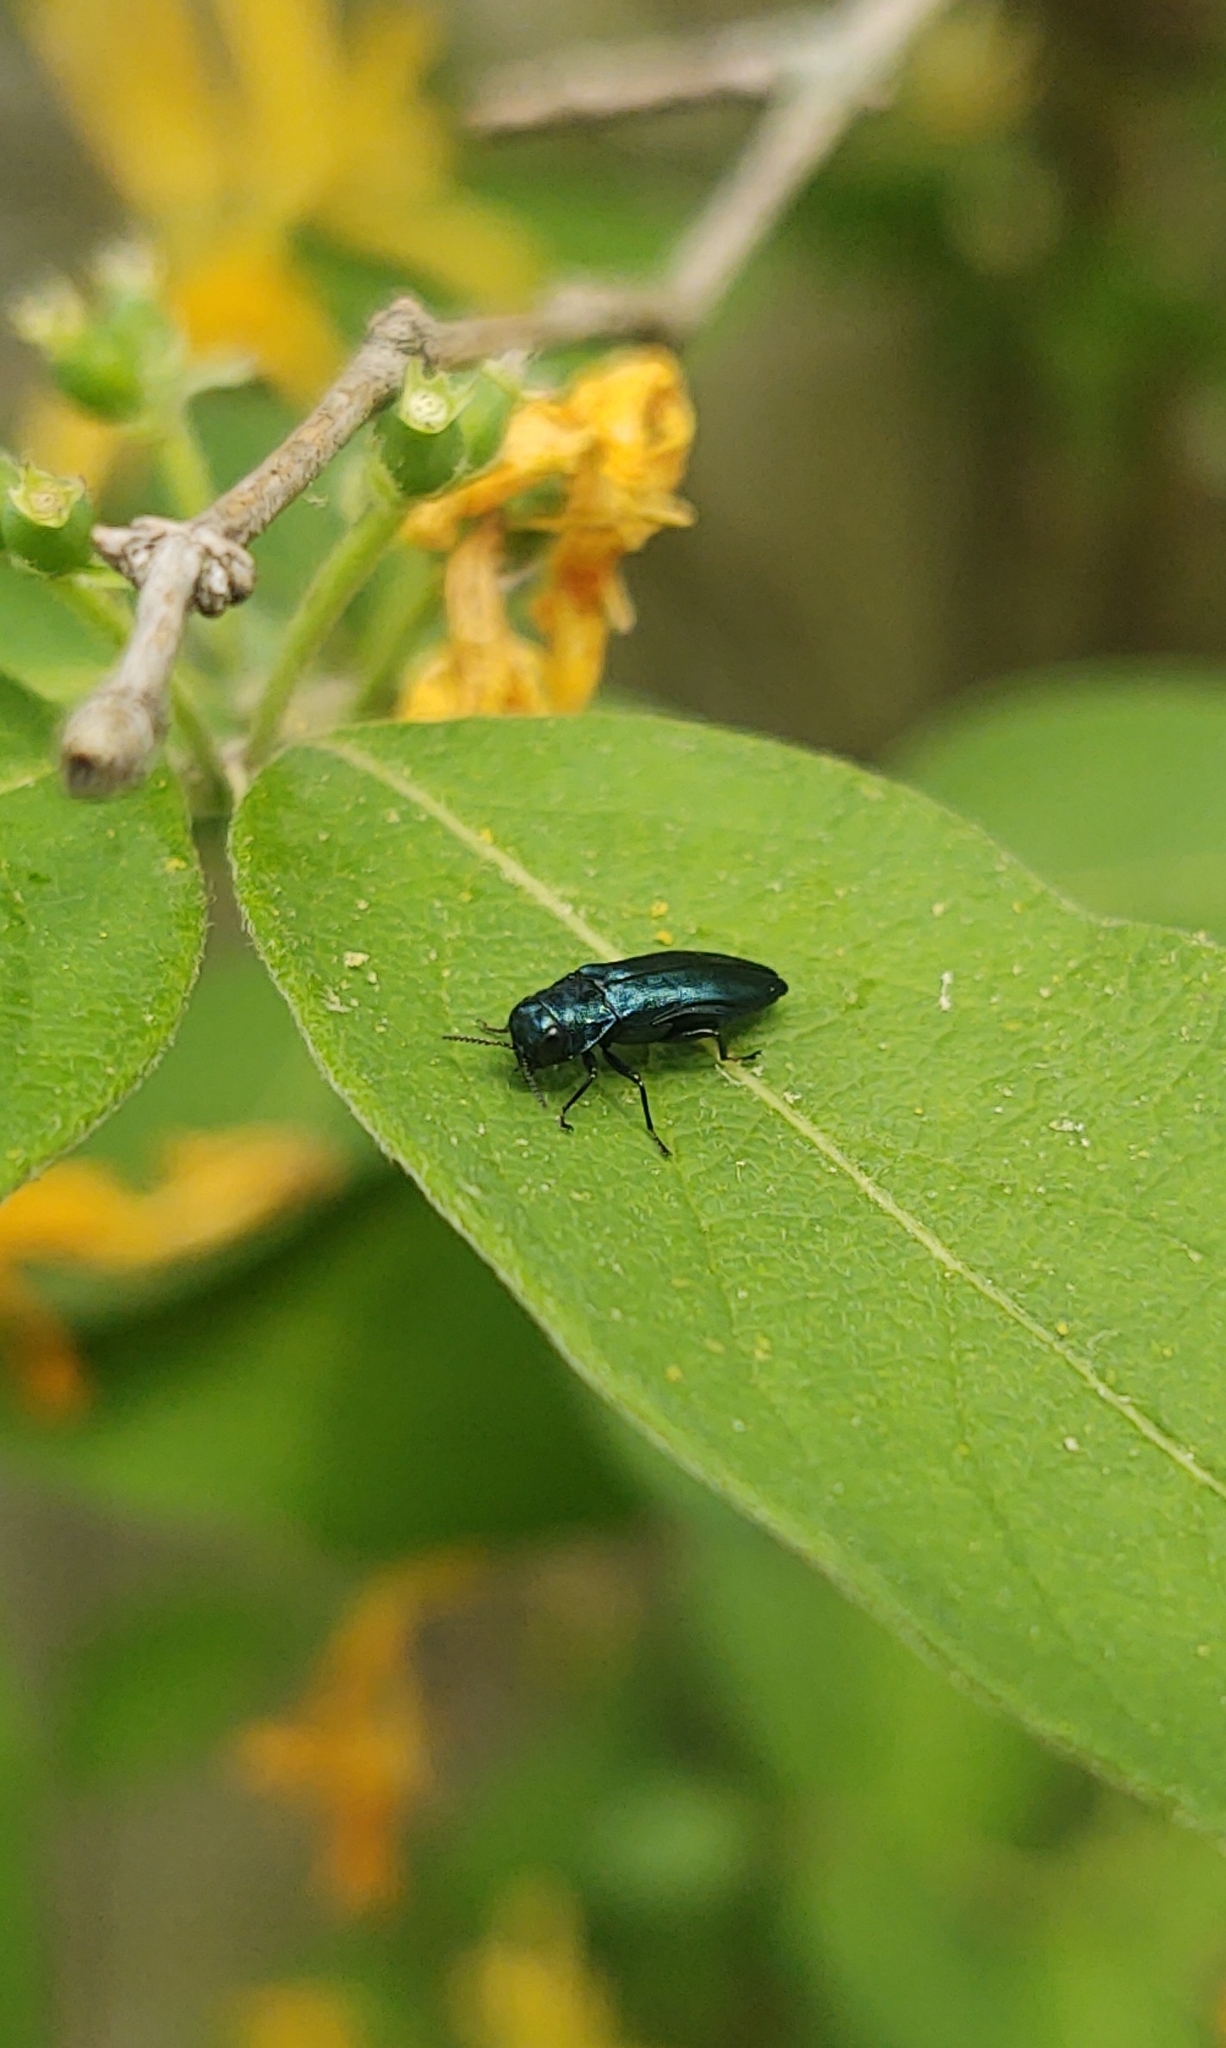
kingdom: Animalia
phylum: Arthropoda
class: Insecta
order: Coleoptera
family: Buprestidae
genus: Agrilus
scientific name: Agrilus cyanescens
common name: Bluish borer beetle
